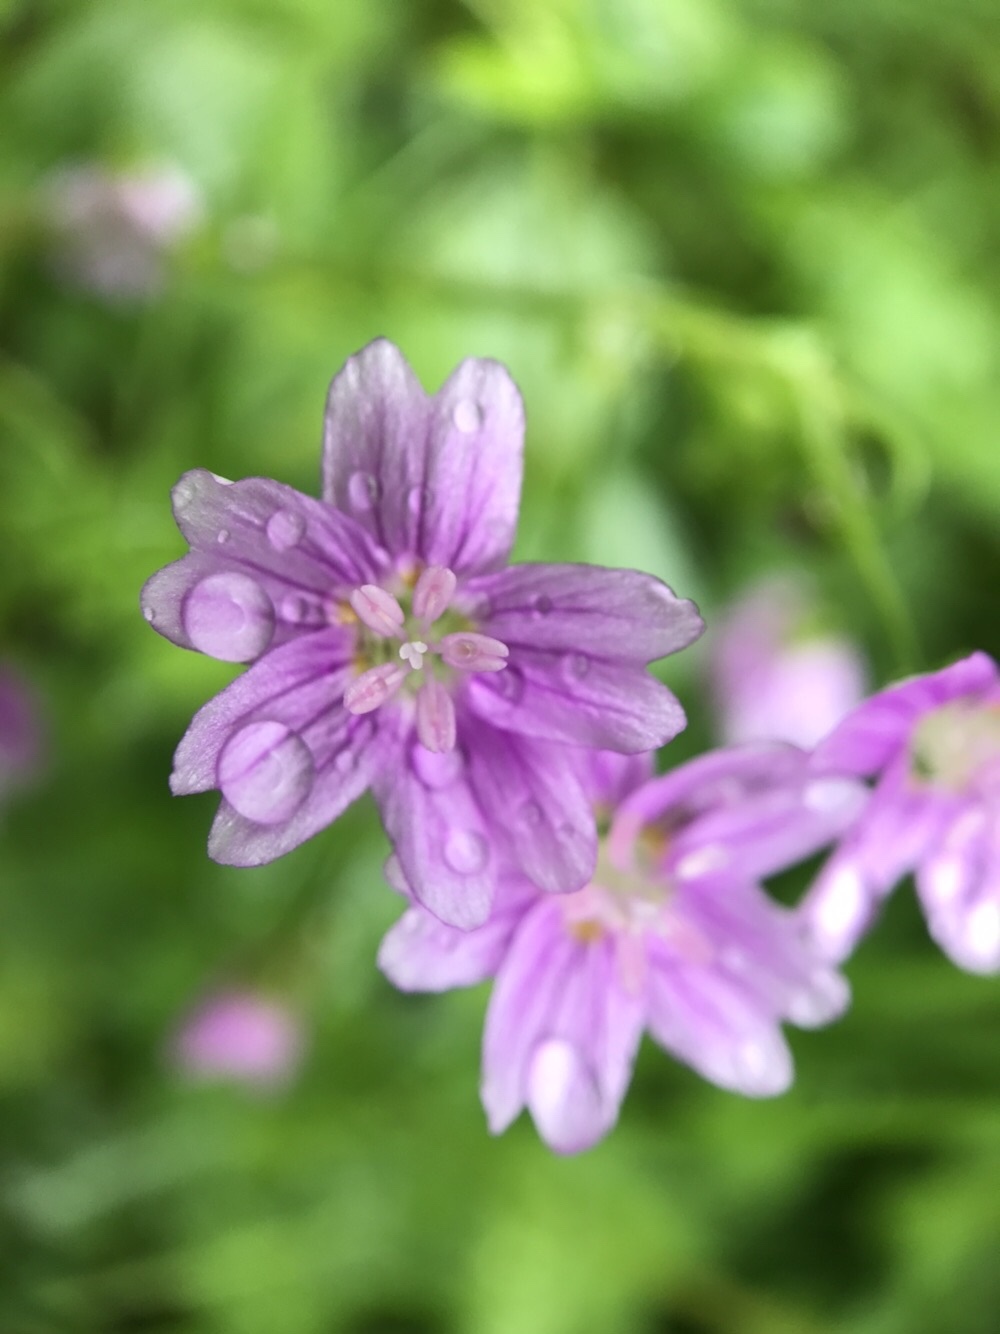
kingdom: Plantae
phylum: Tracheophyta
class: Magnoliopsida
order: Caryophyllales
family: Montiaceae
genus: Claytonia
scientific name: Claytonia sibirica
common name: Pink purslane
